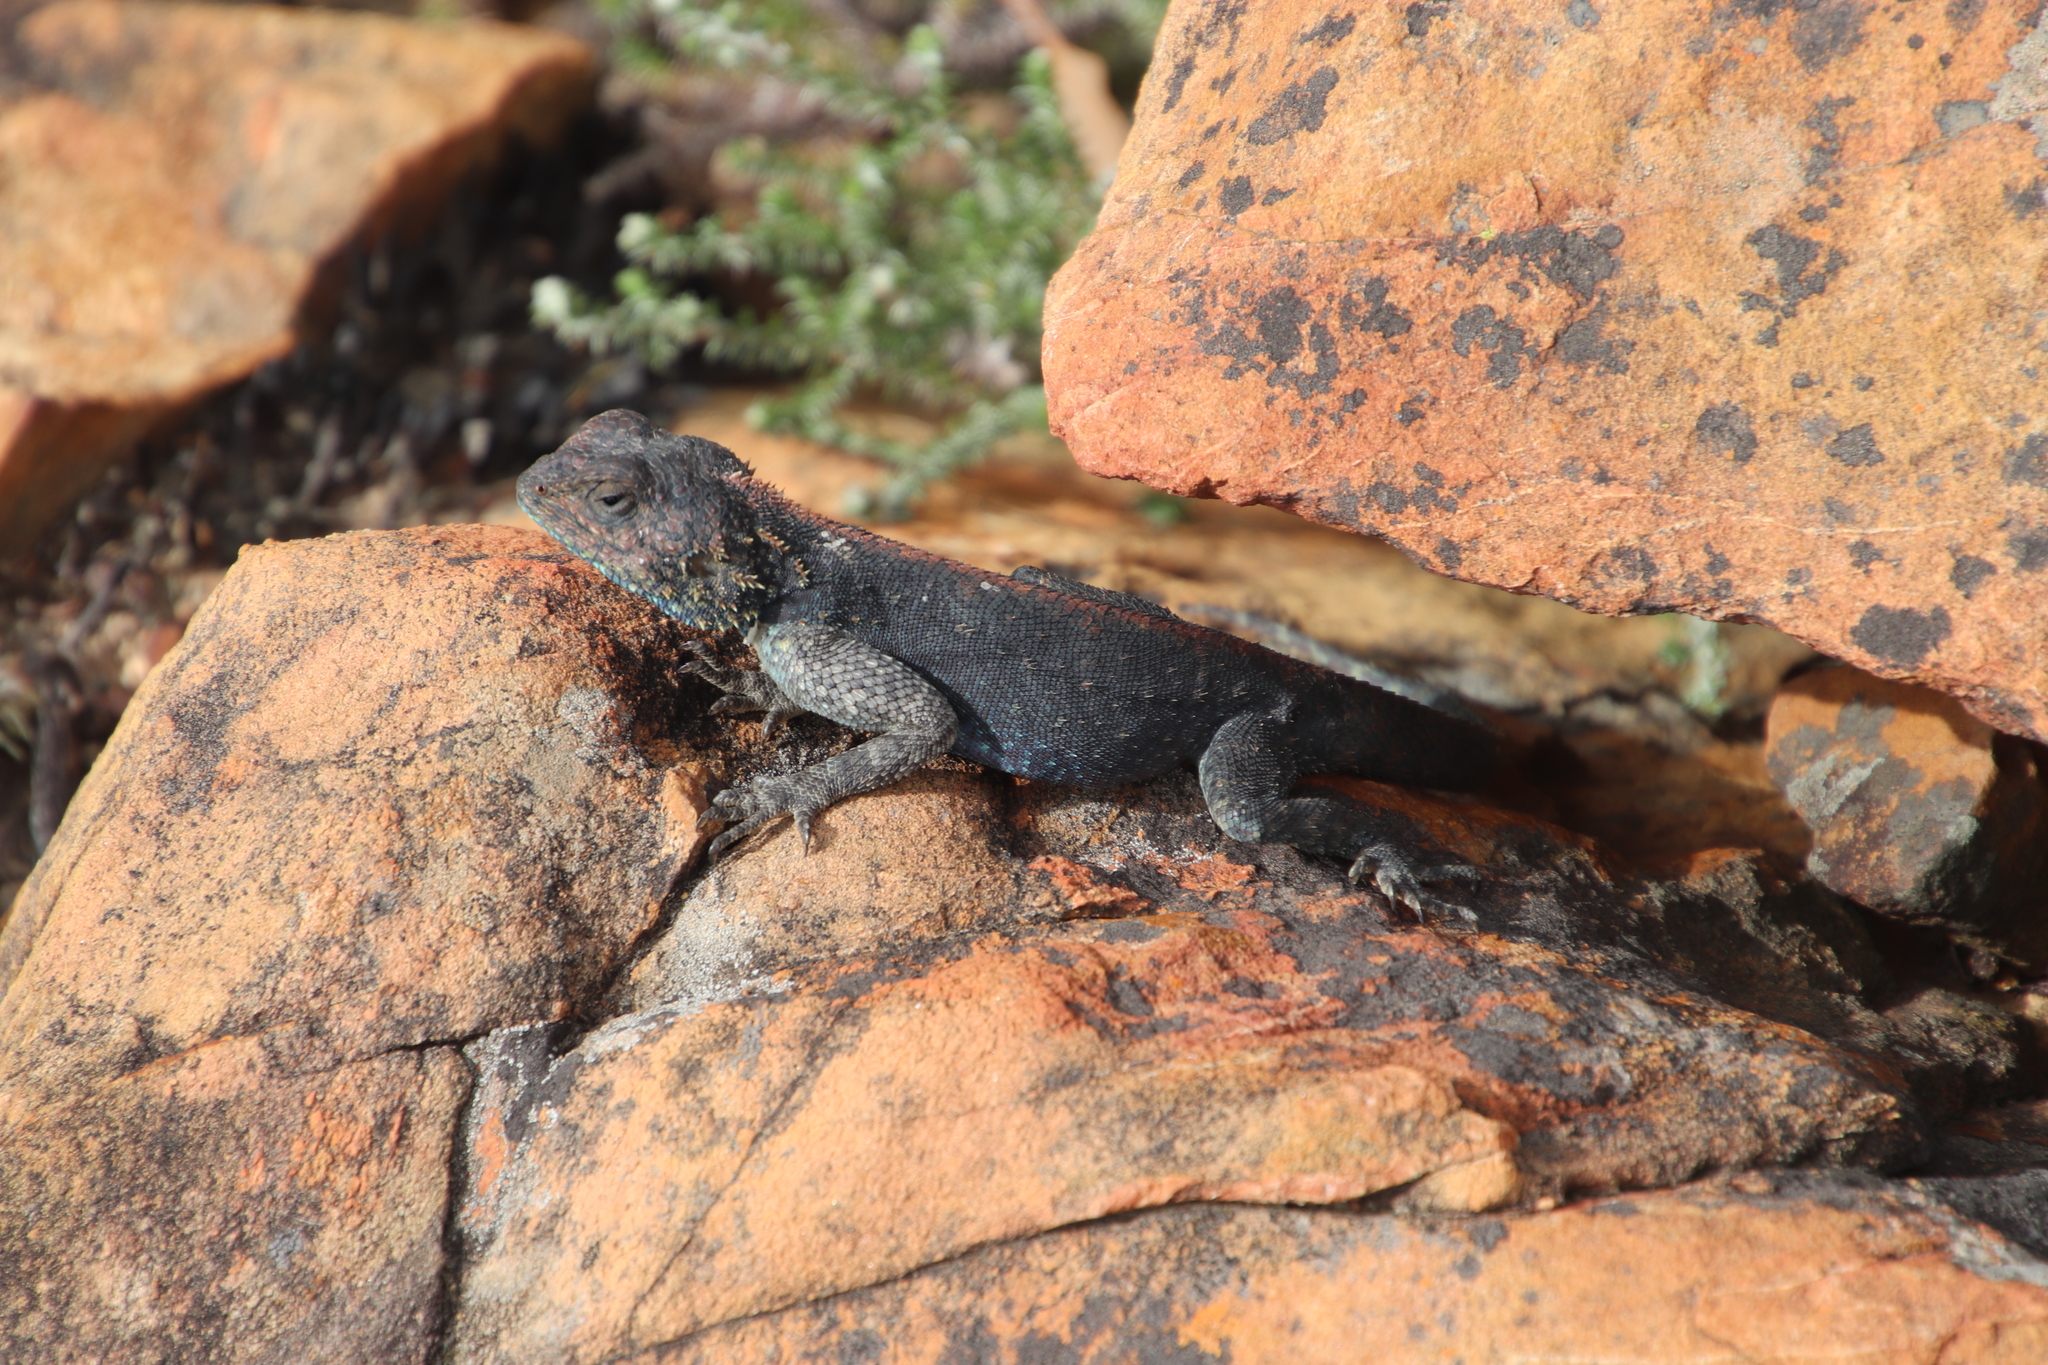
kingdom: Animalia
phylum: Chordata
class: Squamata
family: Agamidae
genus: Agama
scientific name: Agama atra
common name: Southern african rock agama
